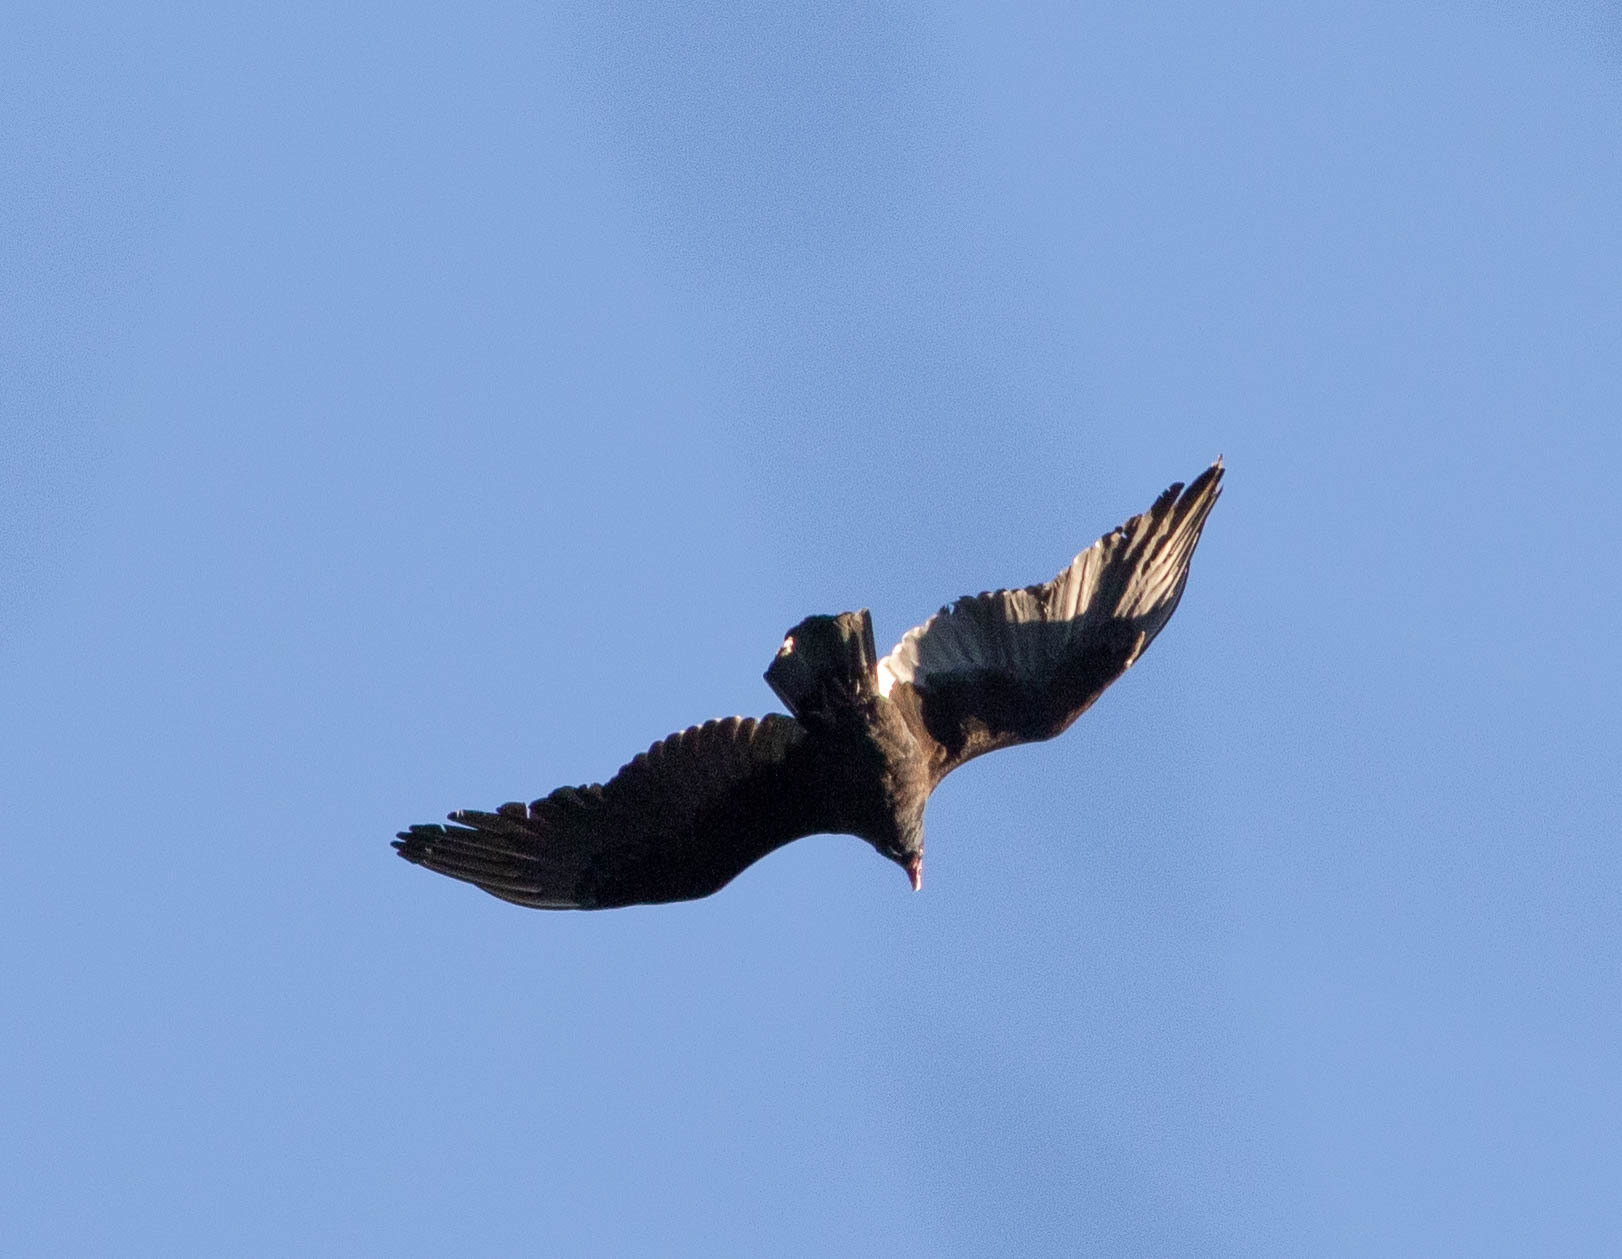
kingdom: Animalia
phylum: Chordata
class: Aves
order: Accipitriformes
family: Cathartidae
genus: Cathartes
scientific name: Cathartes aura
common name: Turkey vulture
